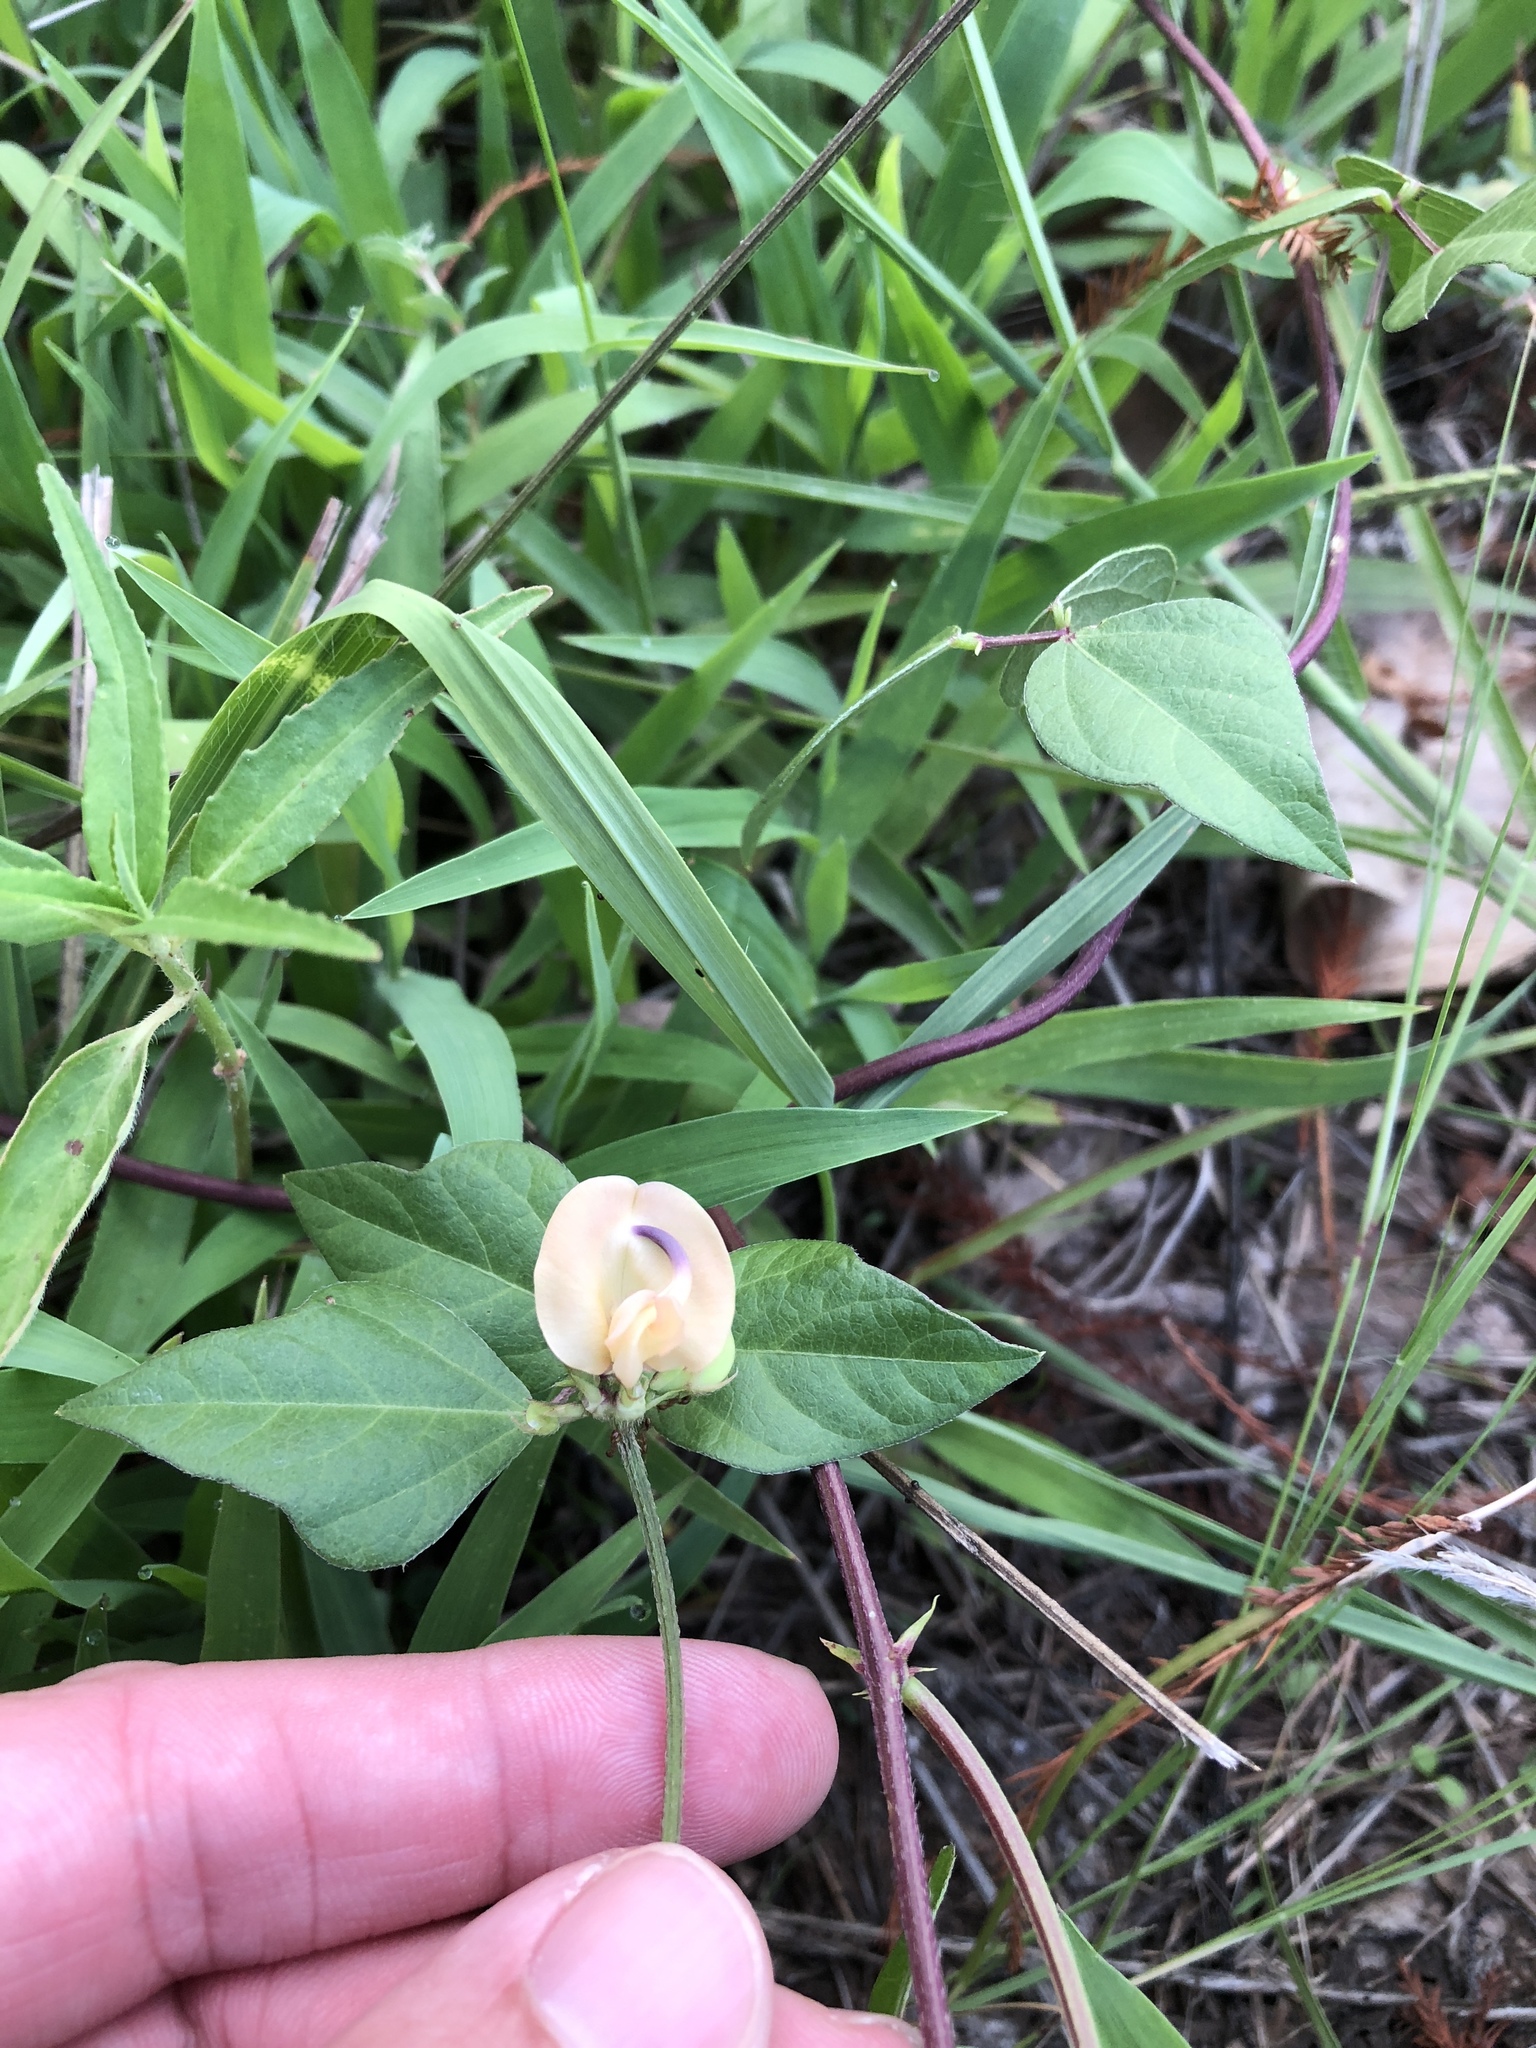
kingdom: Plantae
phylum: Tracheophyta
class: Magnoliopsida
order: Fabales
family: Fabaceae
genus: Strophostyles
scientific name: Strophostyles helvola
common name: Trailing wild bean
